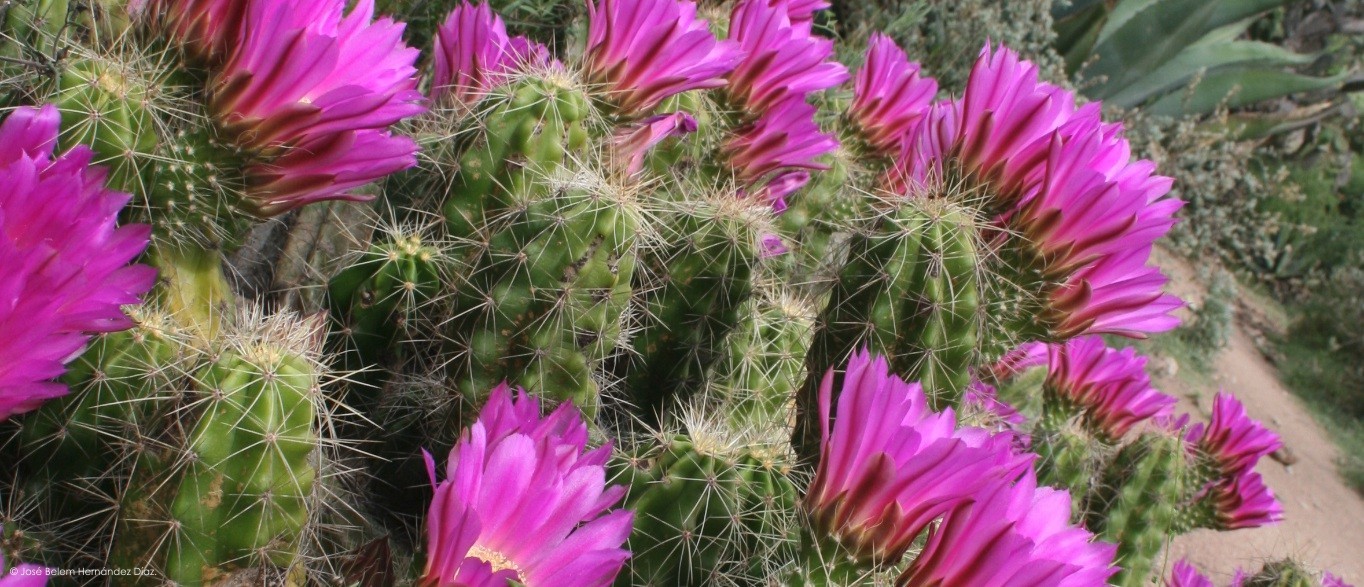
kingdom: Plantae
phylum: Tracheophyta
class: Magnoliopsida
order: Caryophyllales
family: Cactaceae
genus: Echinocereus
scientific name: Echinocereus cinerascens
